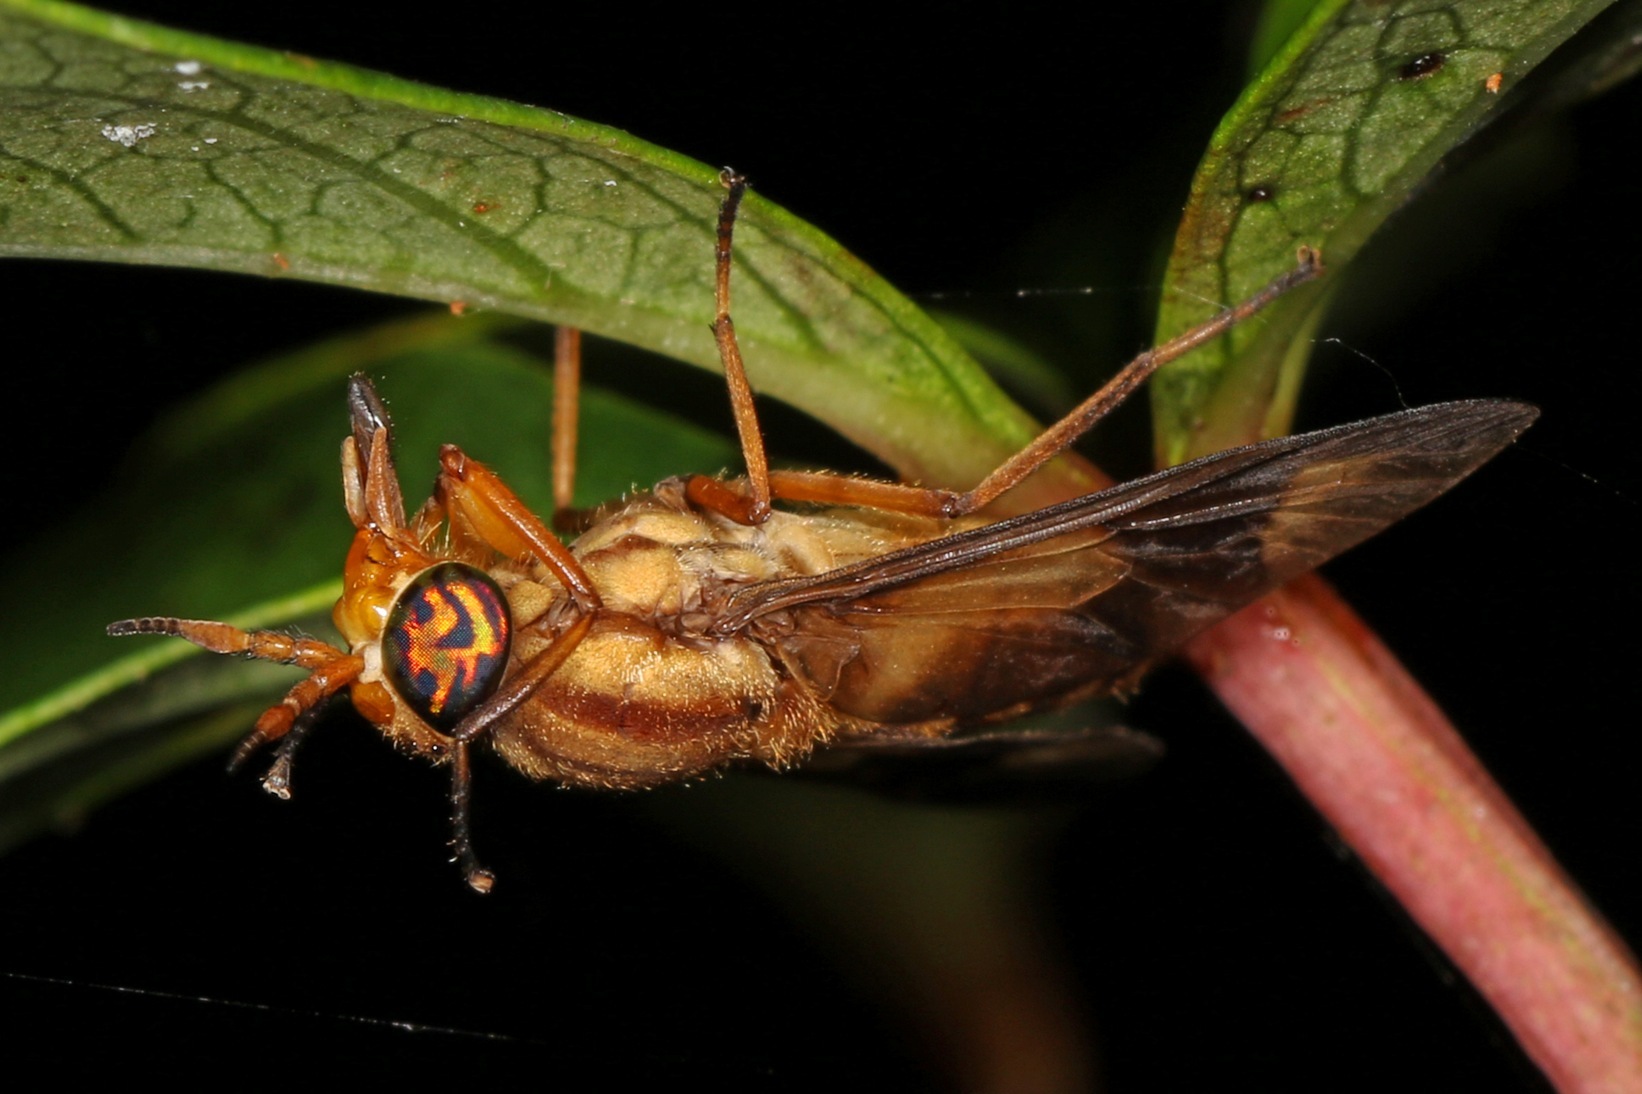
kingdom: Animalia
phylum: Arthropoda
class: Insecta
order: Diptera
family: Tabanidae
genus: Chrysops
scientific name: Chrysops flavidus
